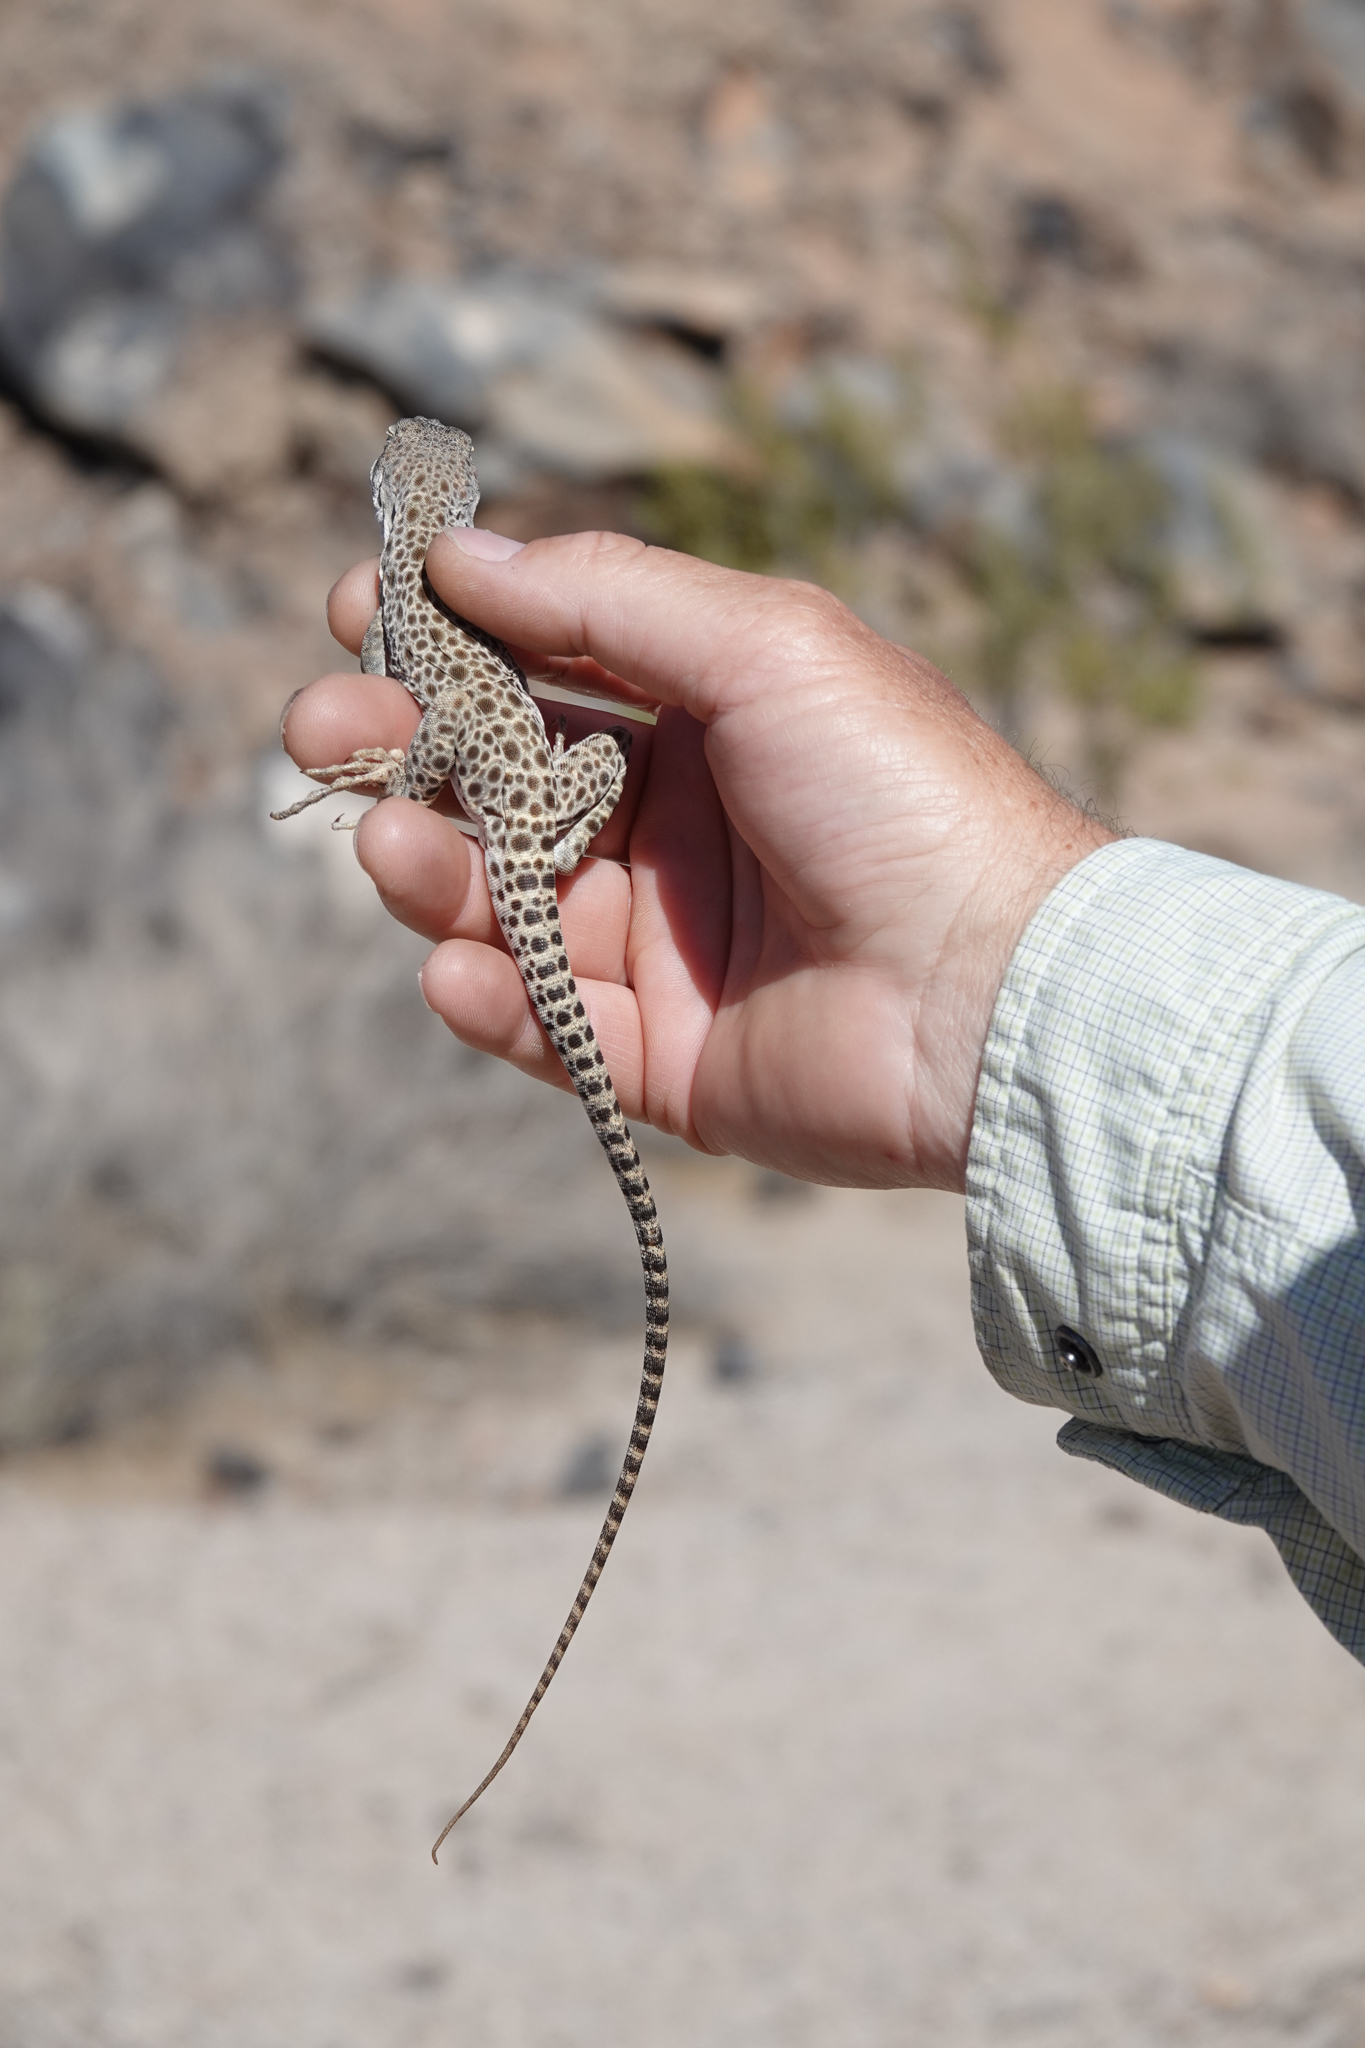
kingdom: Animalia
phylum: Chordata
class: Squamata
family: Crotaphytidae
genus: Gambelia
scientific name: Gambelia wislizenii
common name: Longnose leopard lizard
